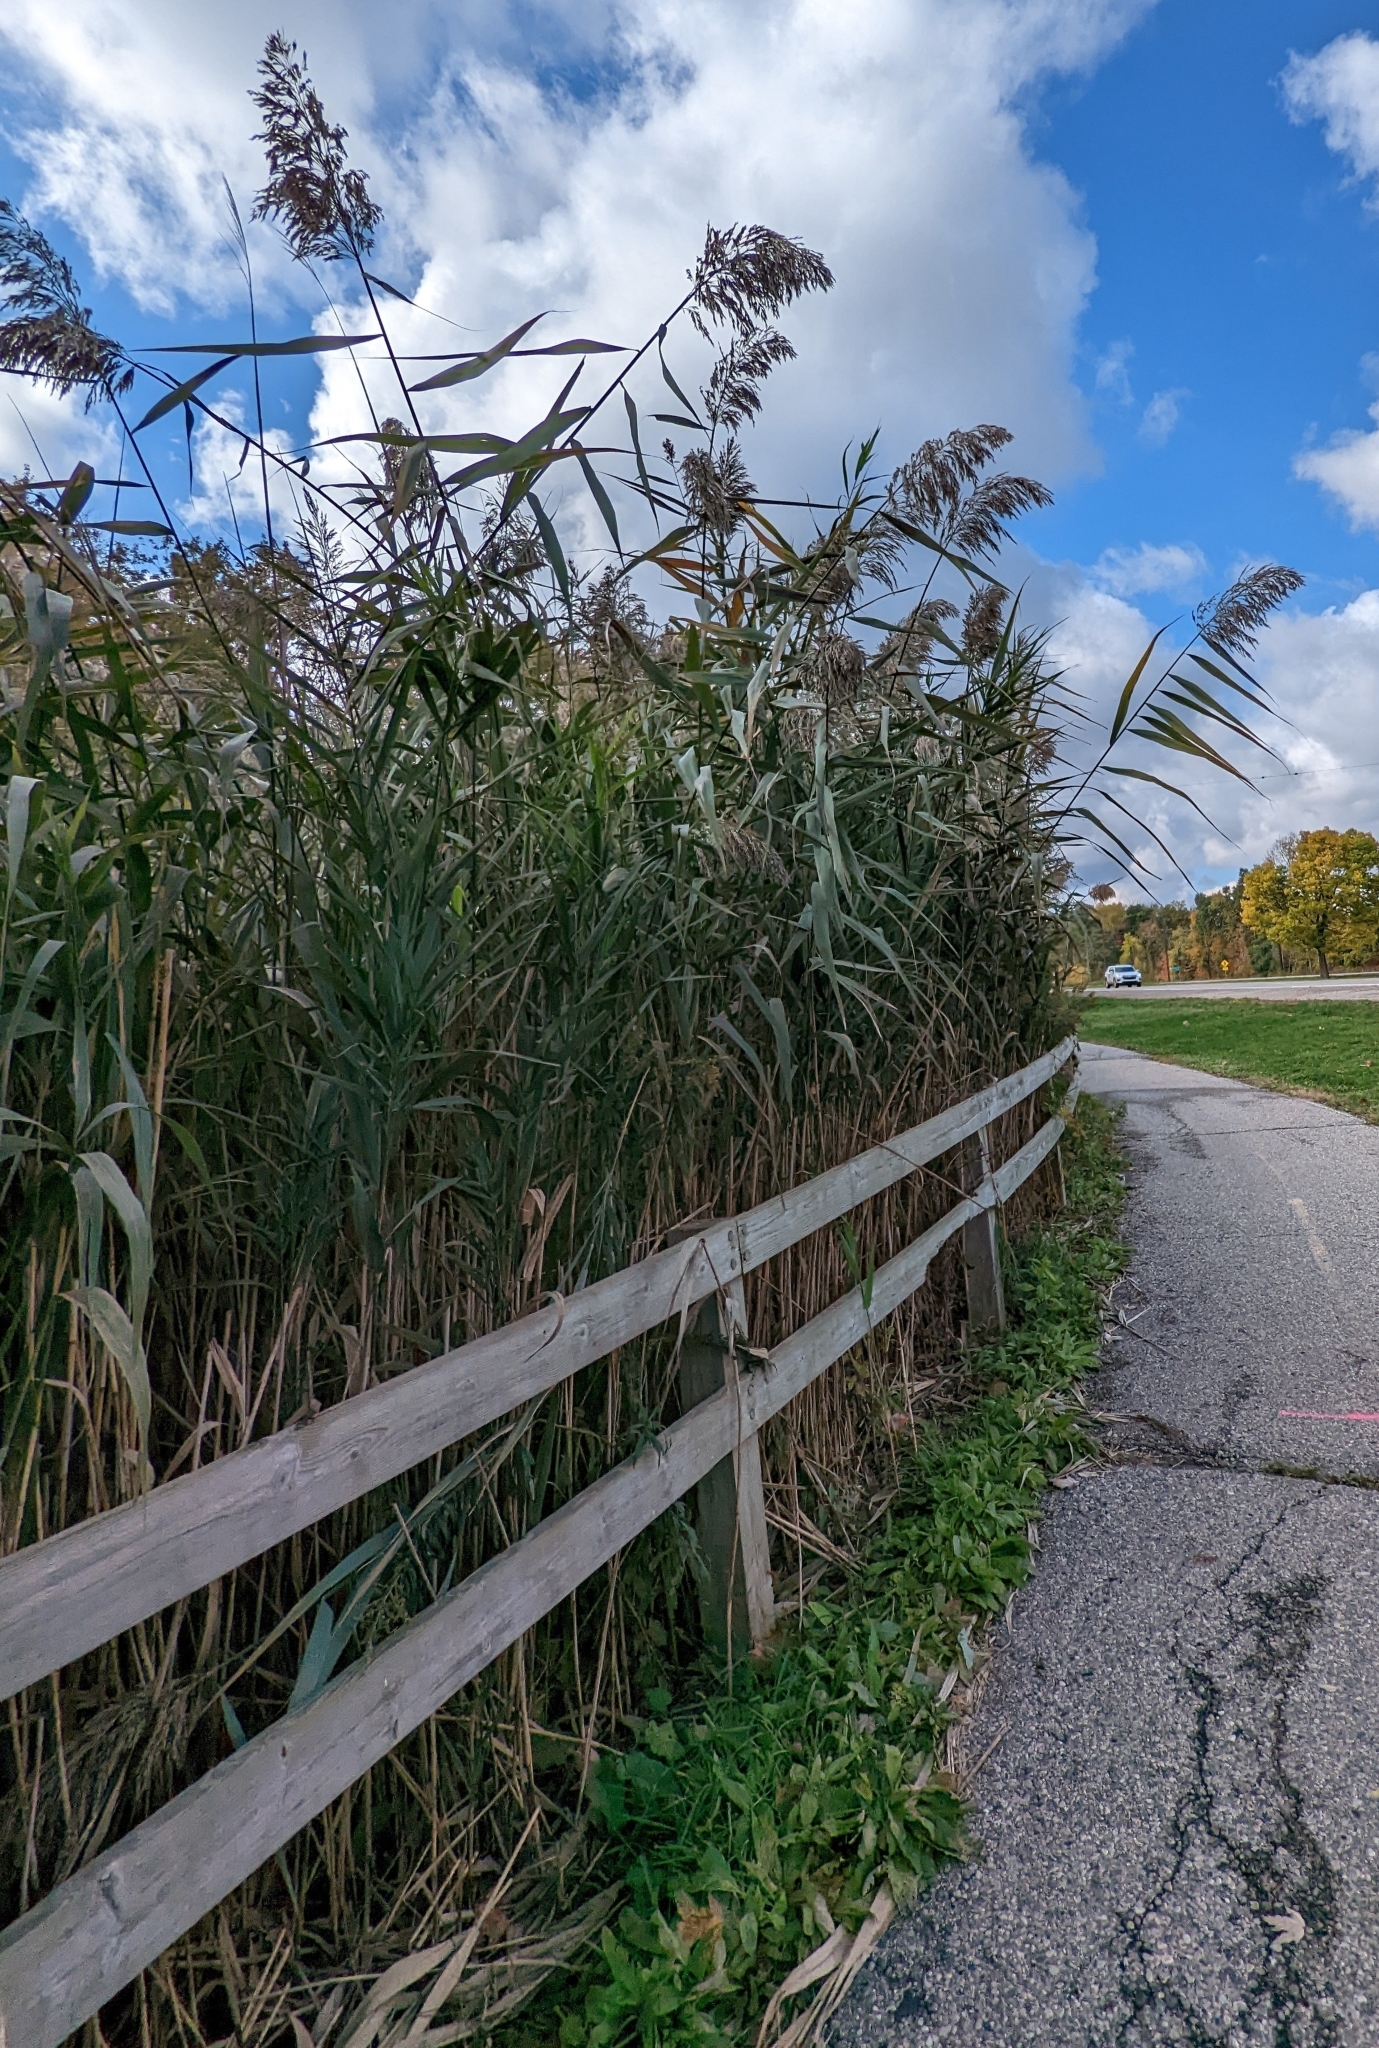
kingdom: Plantae
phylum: Tracheophyta
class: Liliopsida
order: Poales
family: Poaceae
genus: Phragmites
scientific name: Phragmites australis
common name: Common reed
